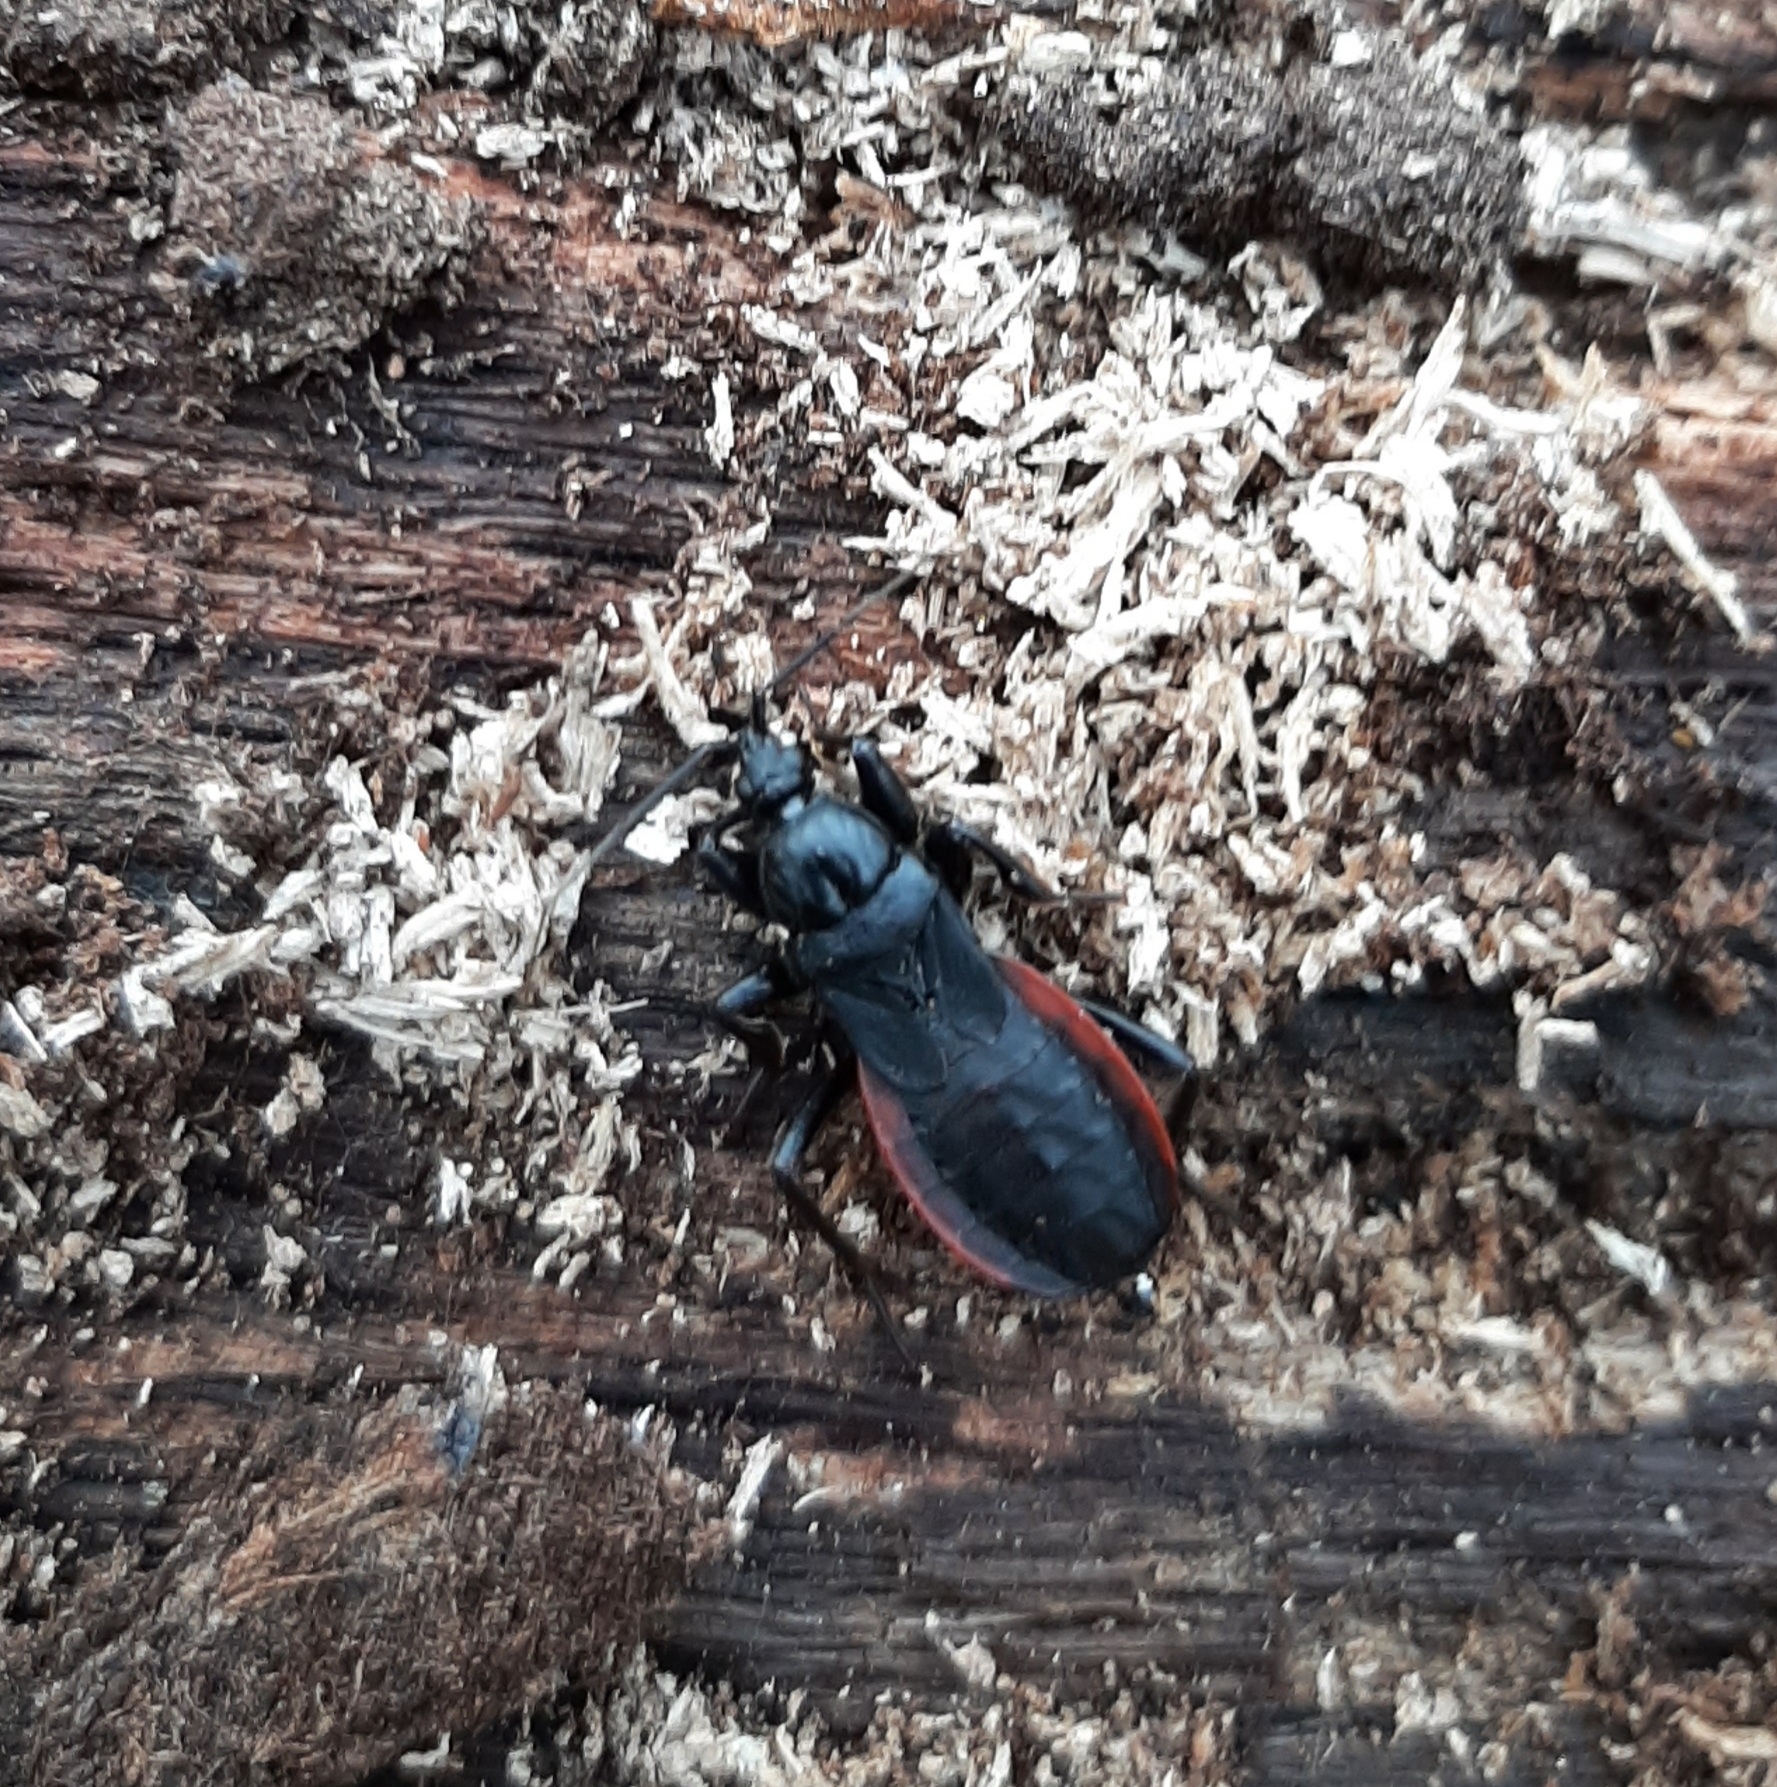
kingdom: Animalia
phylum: Arthropoda
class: Insecta
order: Hemiptera
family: Reduviidae
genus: Melanolestes
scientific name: Melanolestes picipes
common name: Assassin bug
